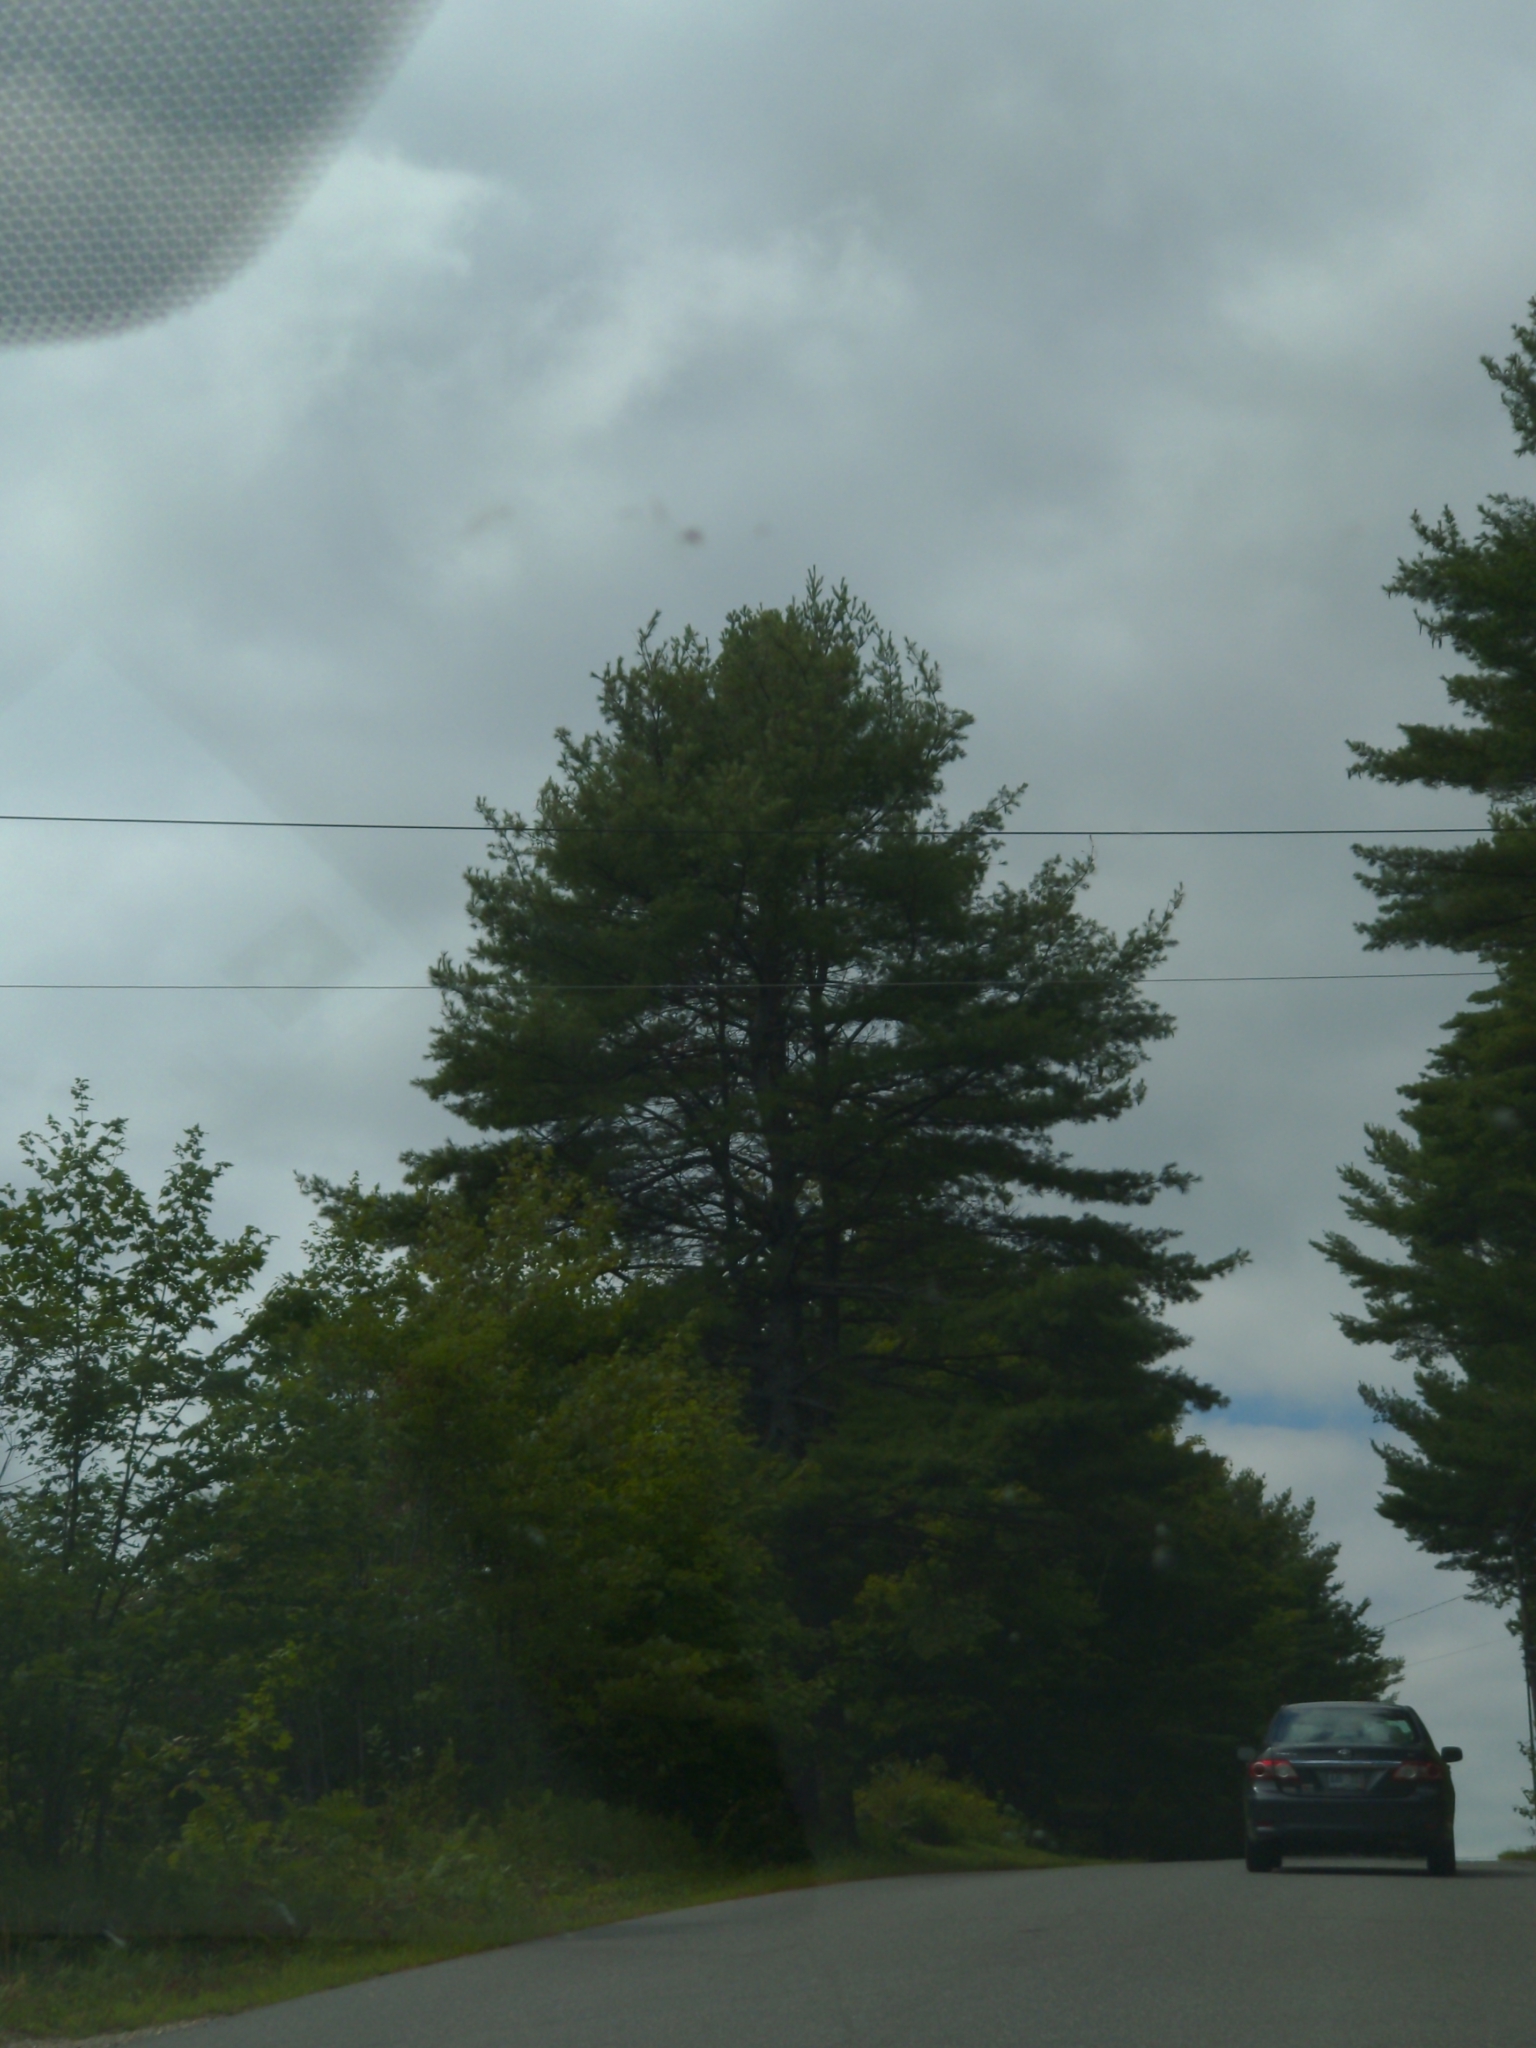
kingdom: Plantae
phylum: Tracheophyta
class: Pinopsida
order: Pinales
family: Pinaceae
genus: Pinus
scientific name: Pinus strobus
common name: Weymouth pine
